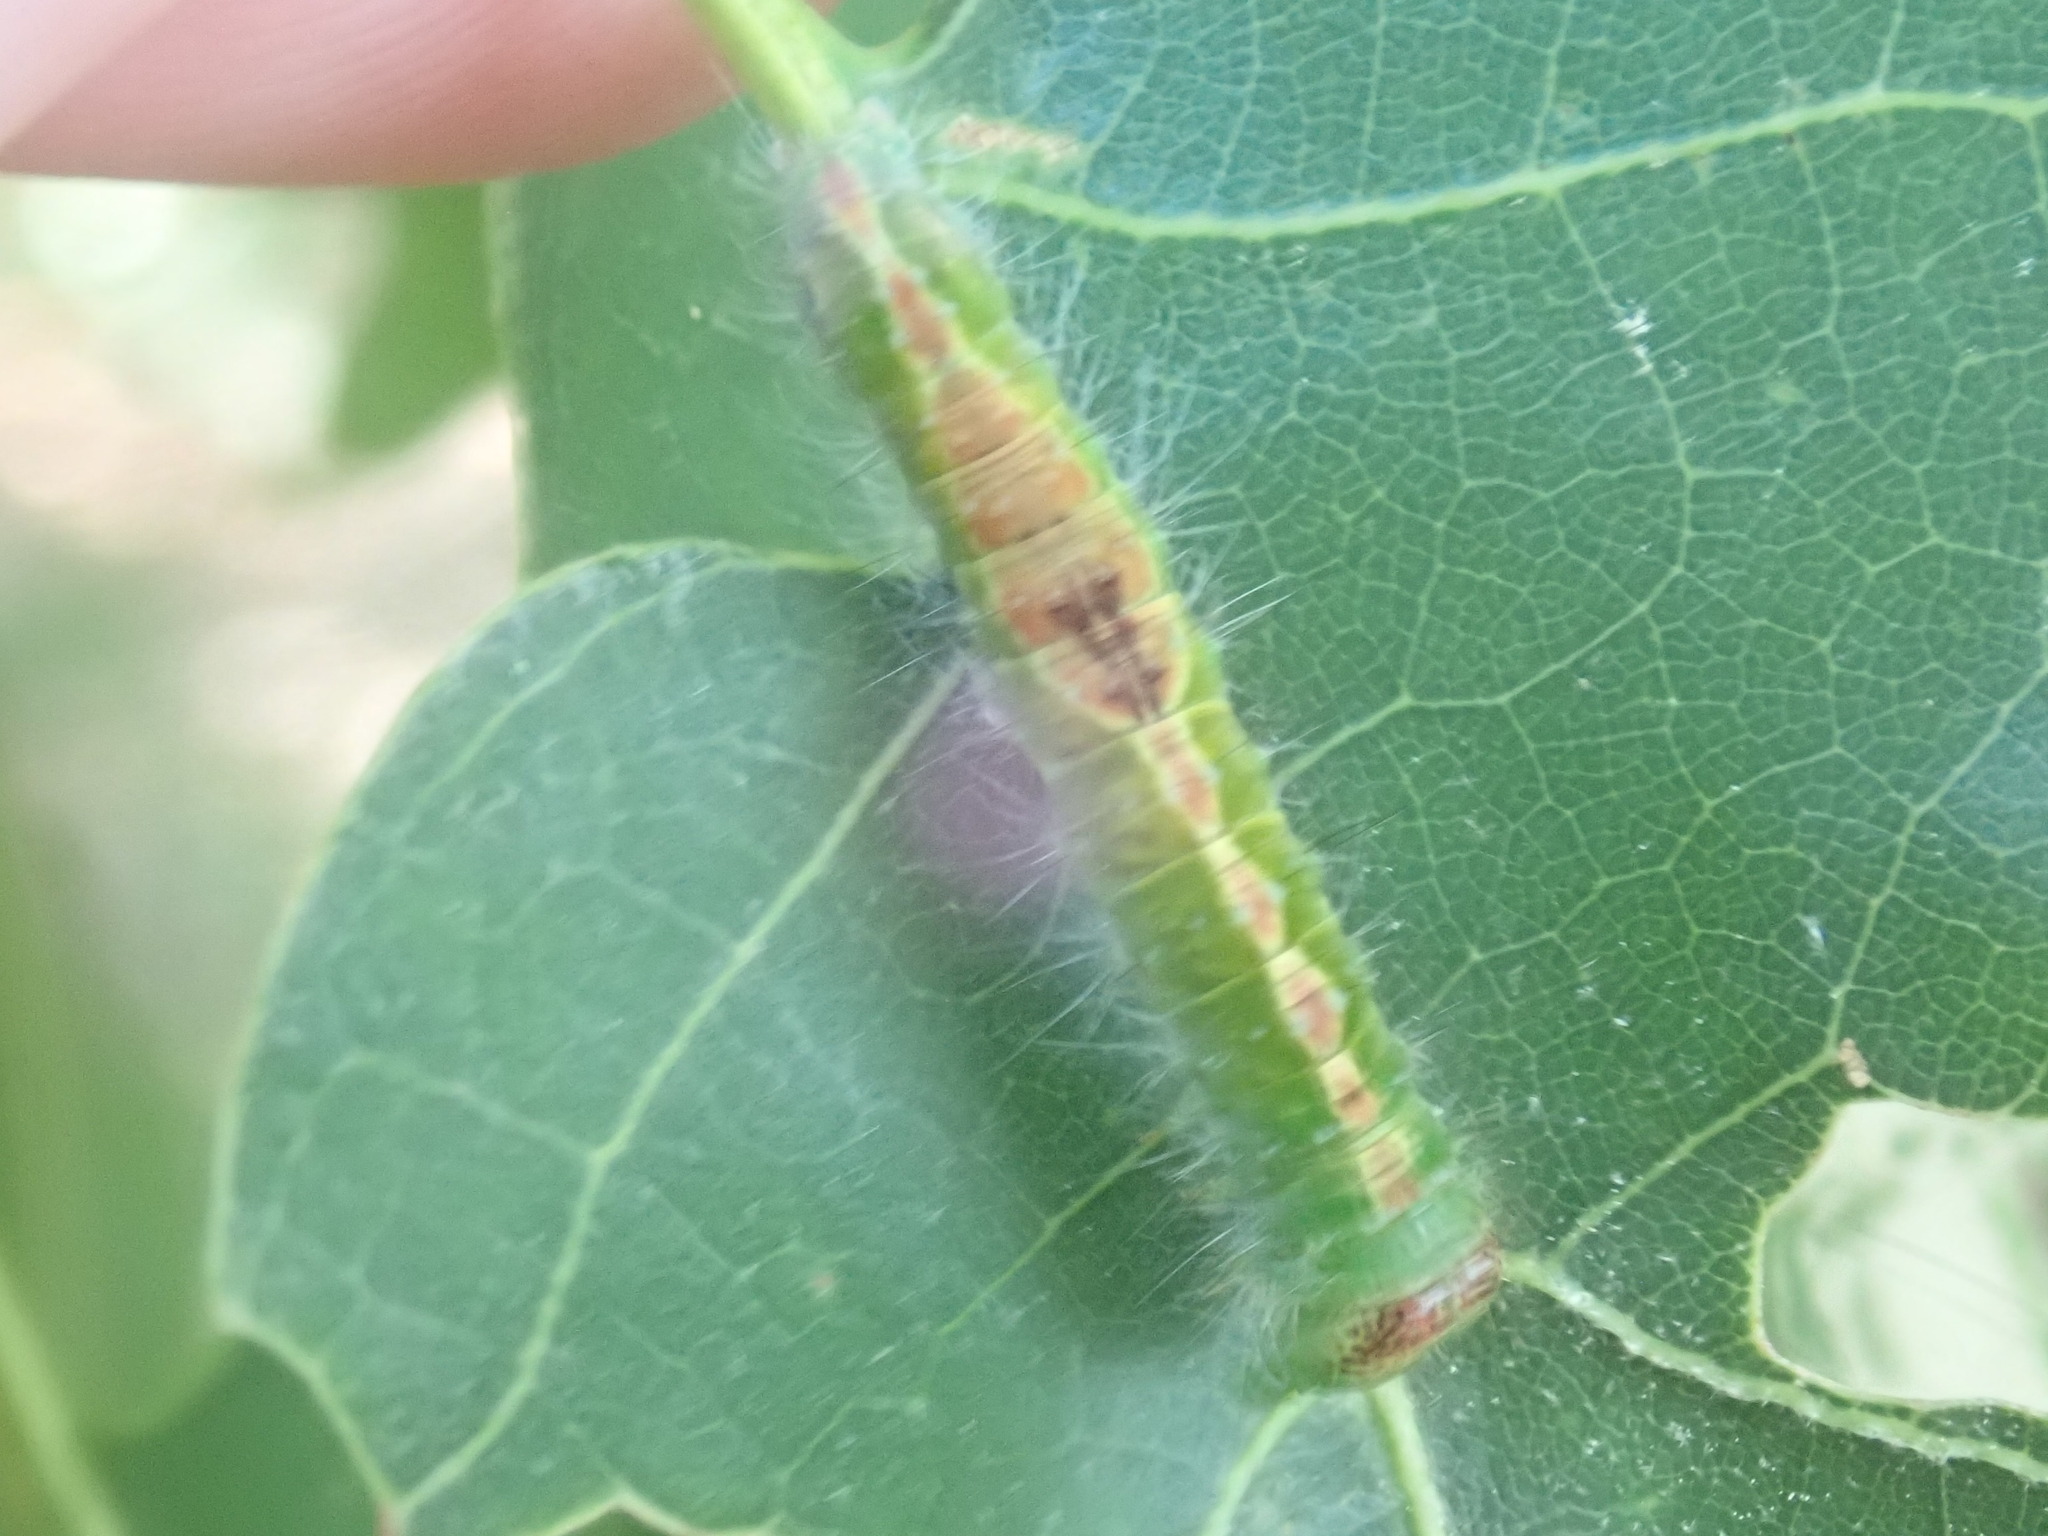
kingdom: Animalia
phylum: Arthropoda
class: Insecta
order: Lepidoptera
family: Noctuidae
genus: Acronicta
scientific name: Acronicta lithospila
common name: Streaked dagger
